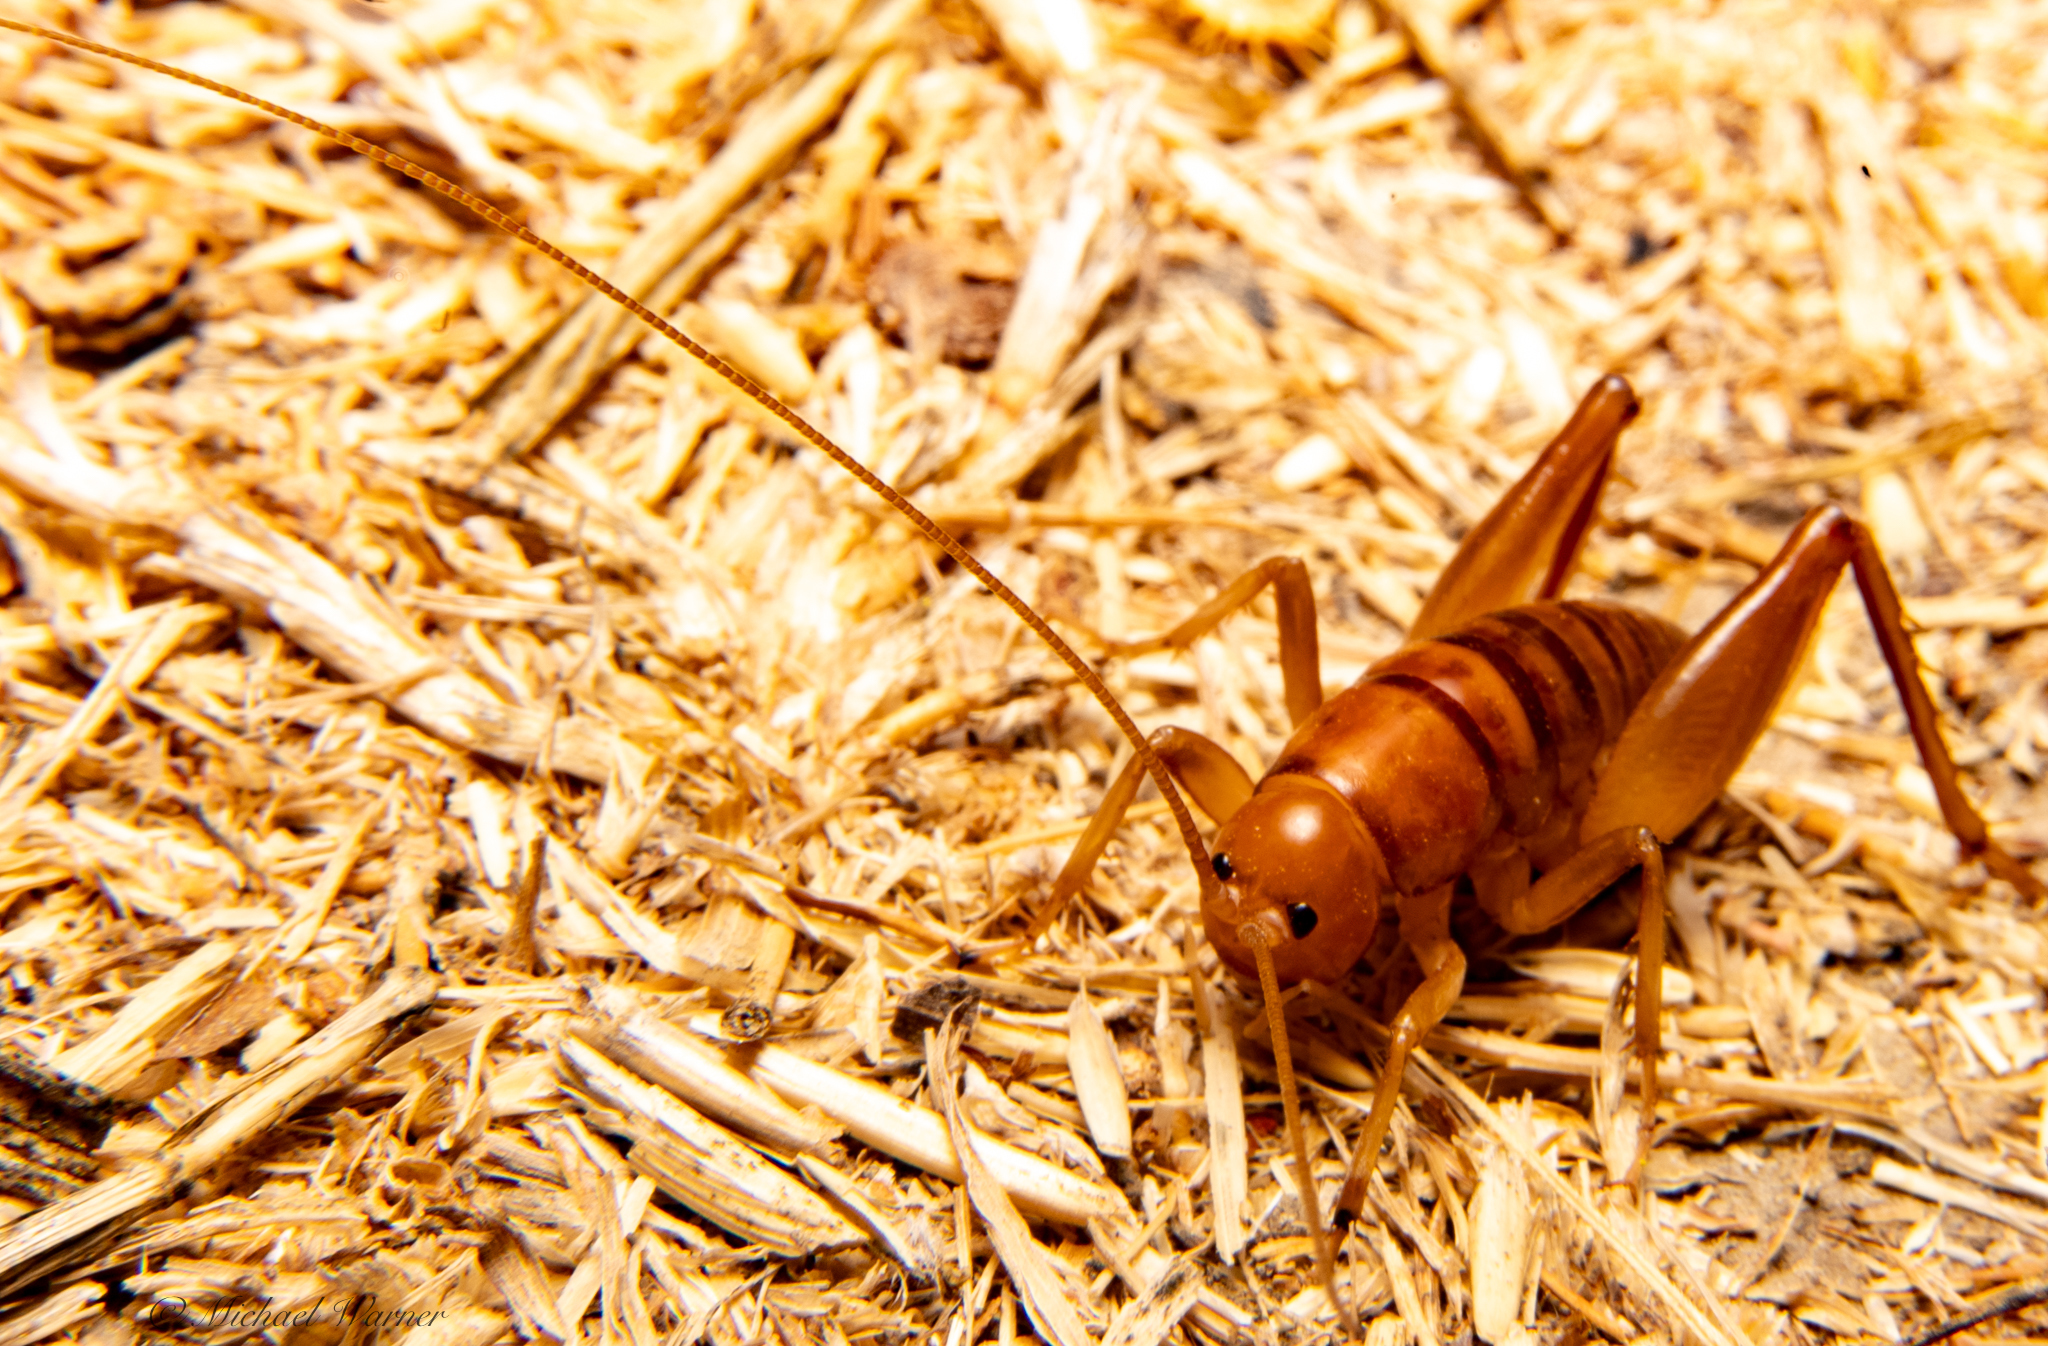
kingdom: Animalia
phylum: Arthropoda
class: Insecta
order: Orthoptera
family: Rhaphidophoridae
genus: Ceuthophilus
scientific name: Ceuthophilus californianus
